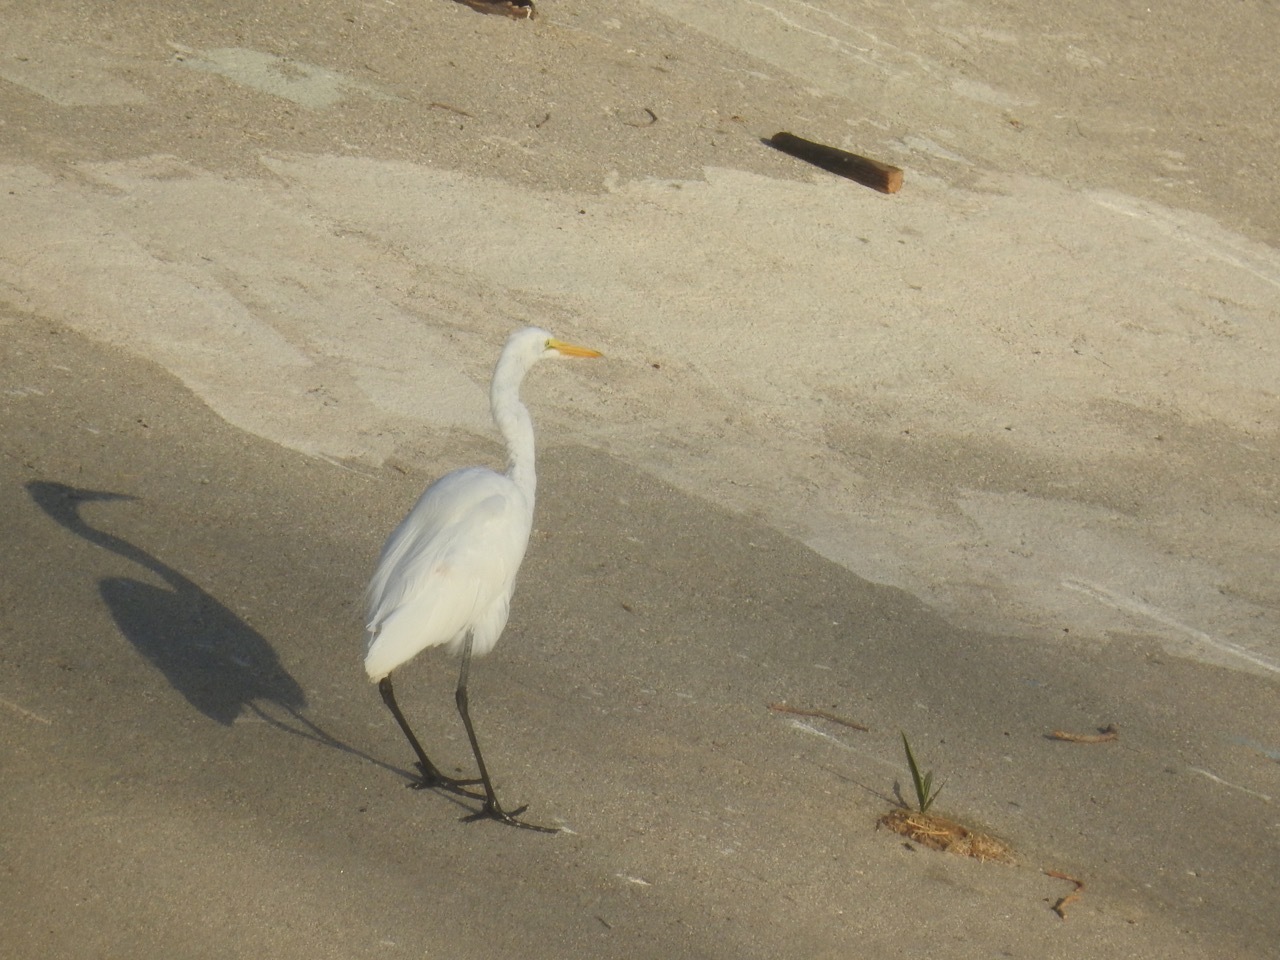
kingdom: Animalia
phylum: Chordata
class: Aves
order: Pelecaniformes
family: Ardeidae
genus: Ardea
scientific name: Ardea alba
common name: Great egret
